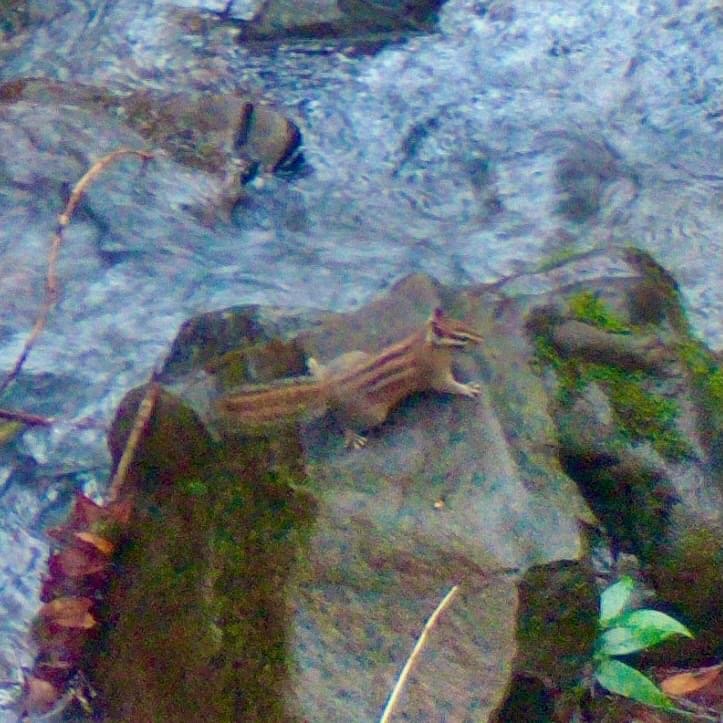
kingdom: Animalia
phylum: Chordata
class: Mammalia
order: Rodentia
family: Sciuridae
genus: Tamias
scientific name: Tamias sonomae
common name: Sonoma chipmunk
